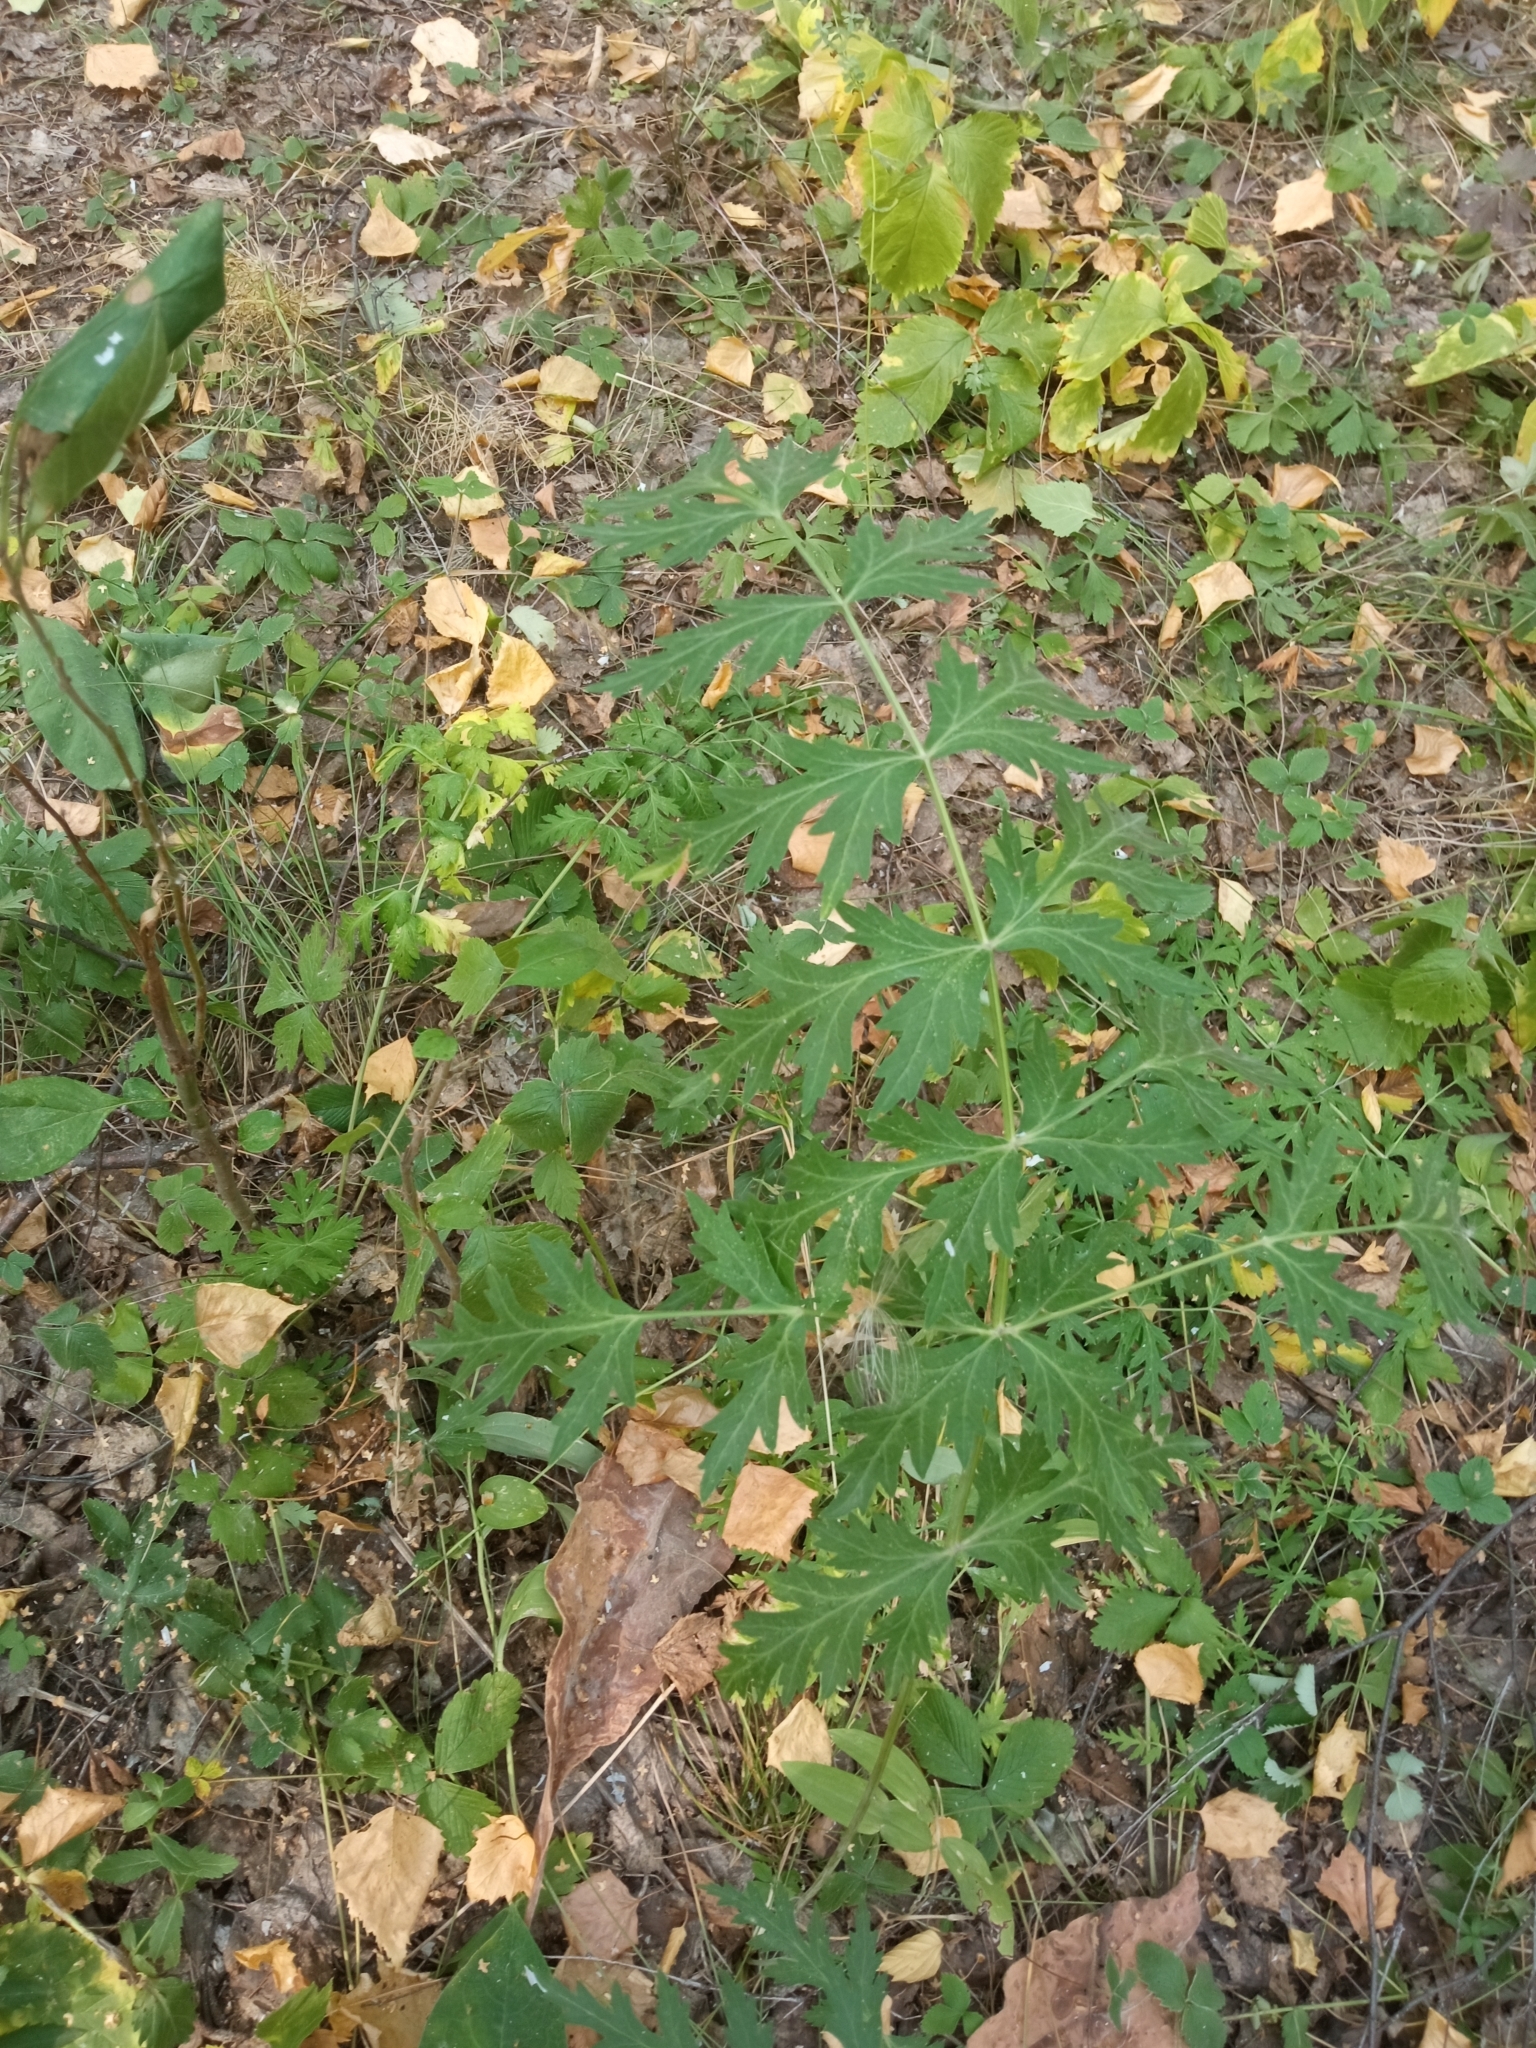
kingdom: Plantae
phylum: Tracheophyta
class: Magnoliopsida
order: Apiales
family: Apiaceae
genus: Seseli
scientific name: Seseli libanotis
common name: Mooncarrot
